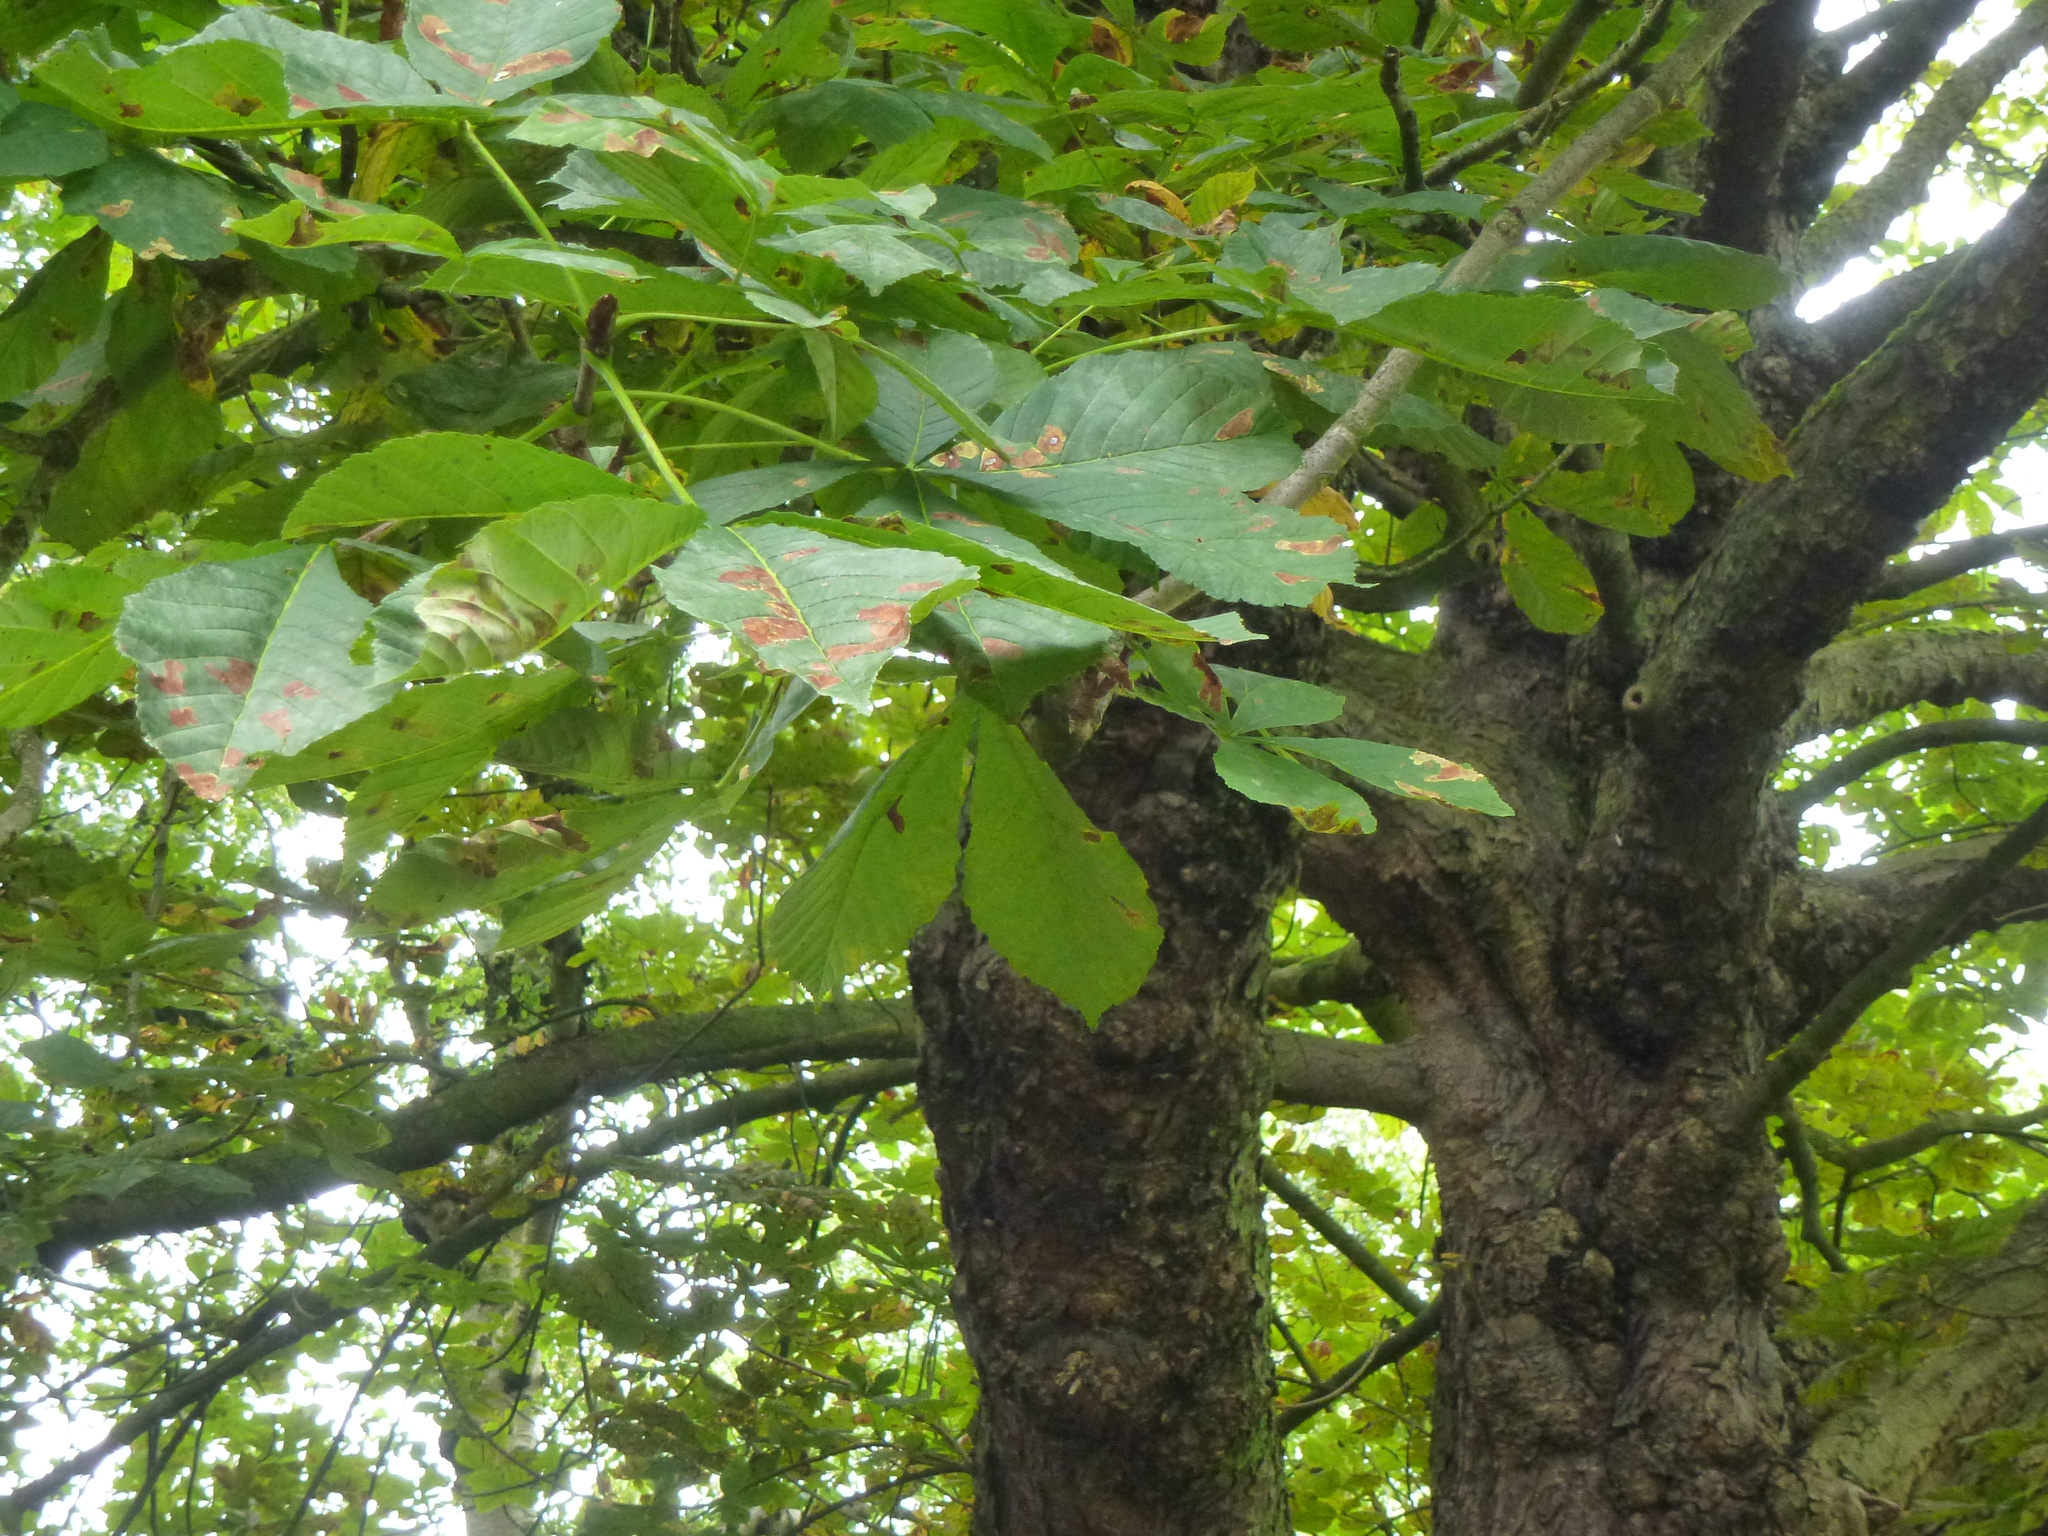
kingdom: Plantae
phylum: Tracheophyta
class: Magnoliopsida
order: Sapindales
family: Sapindaceae
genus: Aesculus
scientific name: Aesculus hippocastanum
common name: Horse-chestnut
